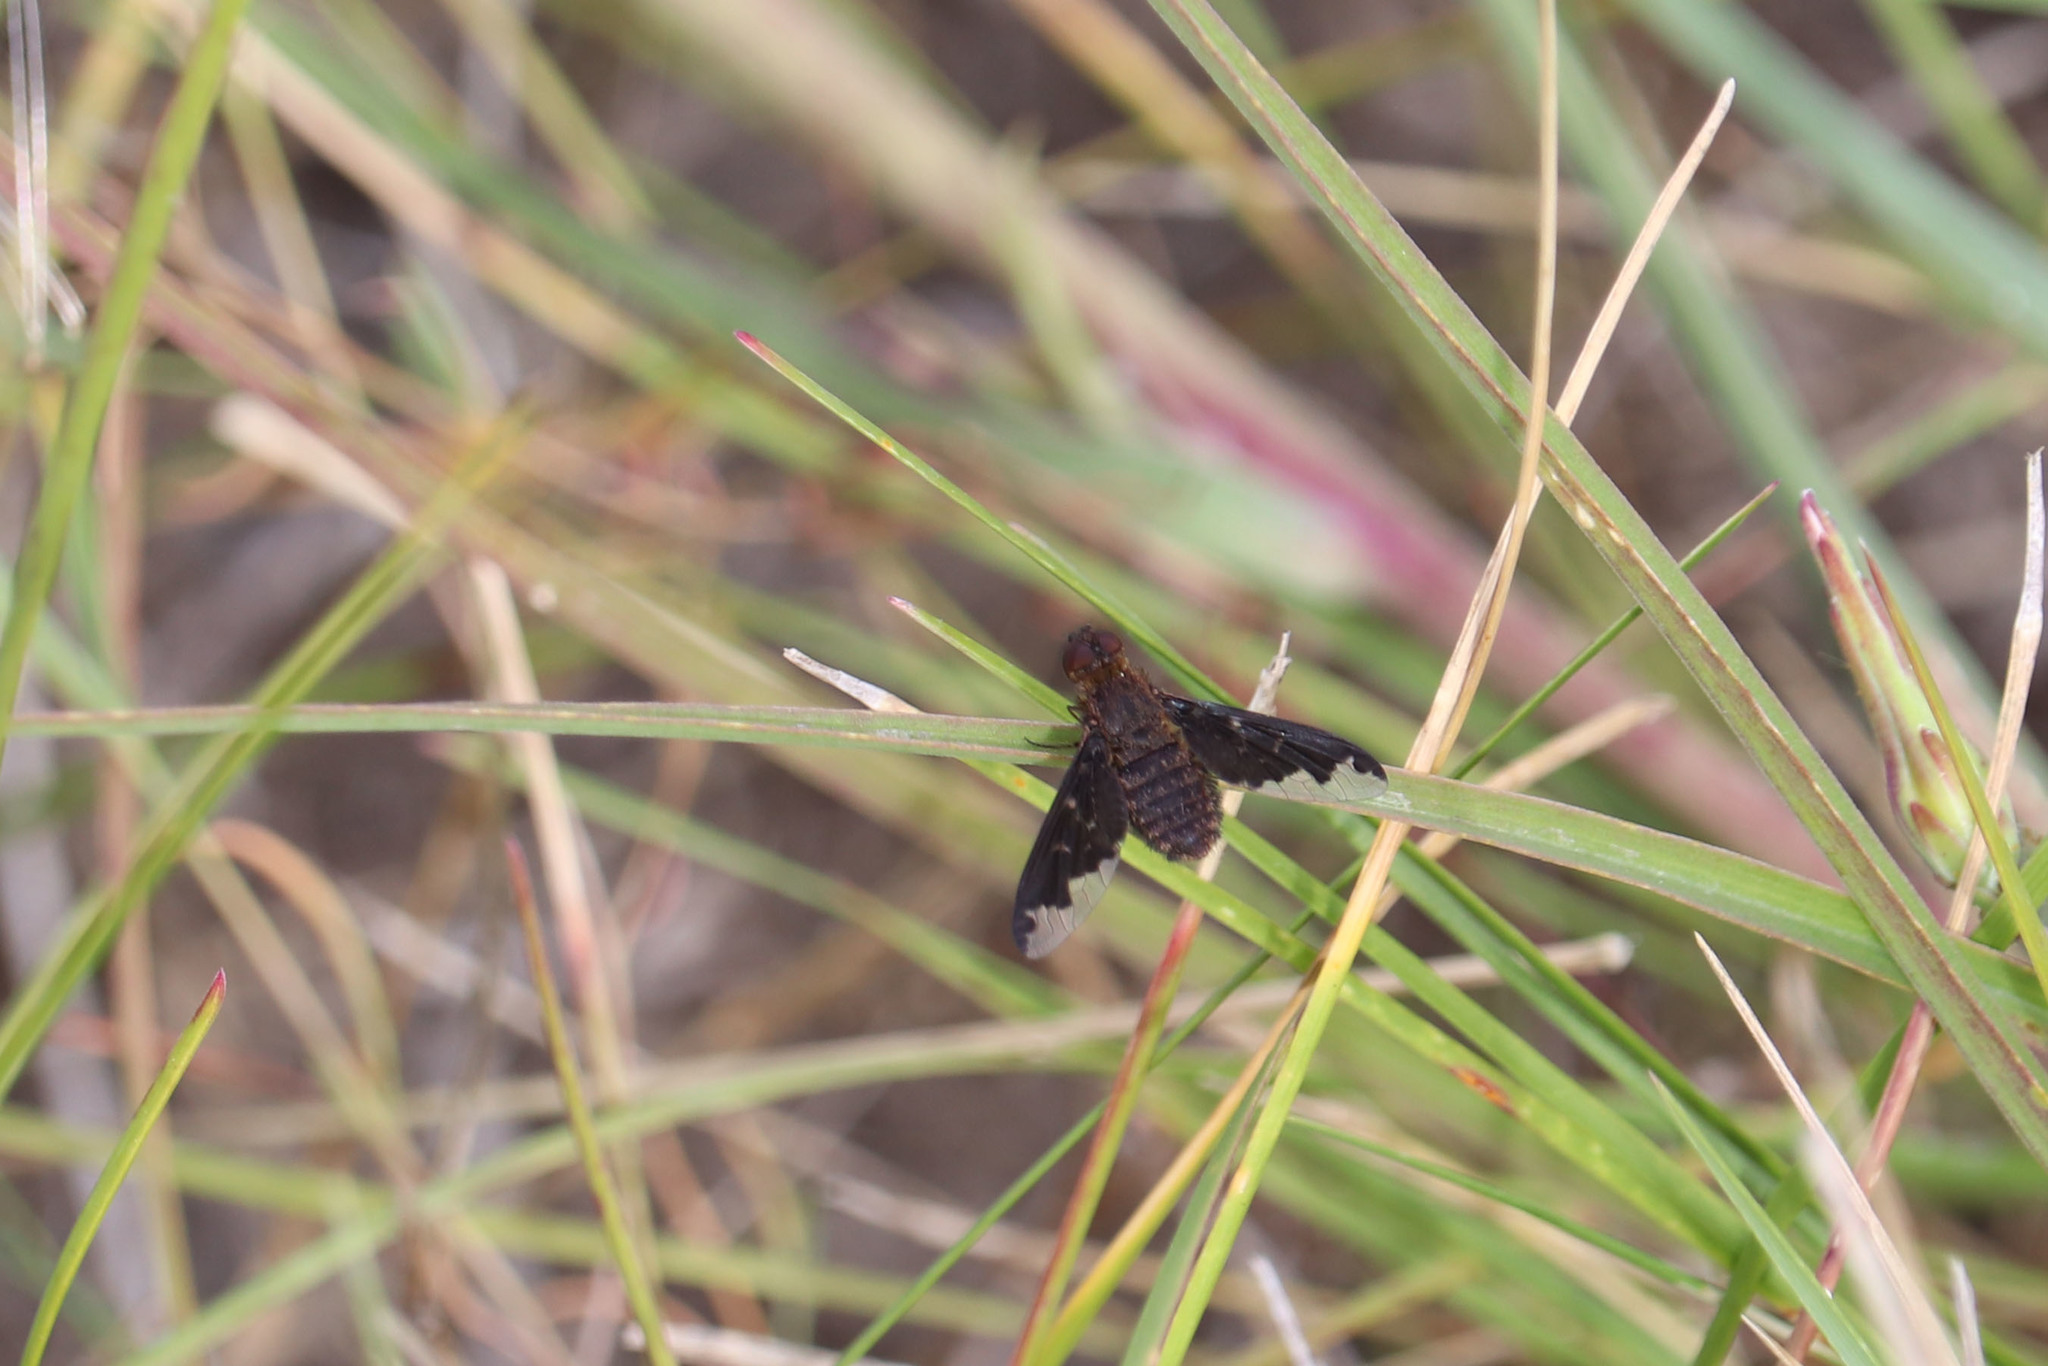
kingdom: Animalia
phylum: Arthropoda
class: Insecta
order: Diptera
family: Bombyliidae
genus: Hemipenthes
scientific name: Hemipenthes sinuosus
